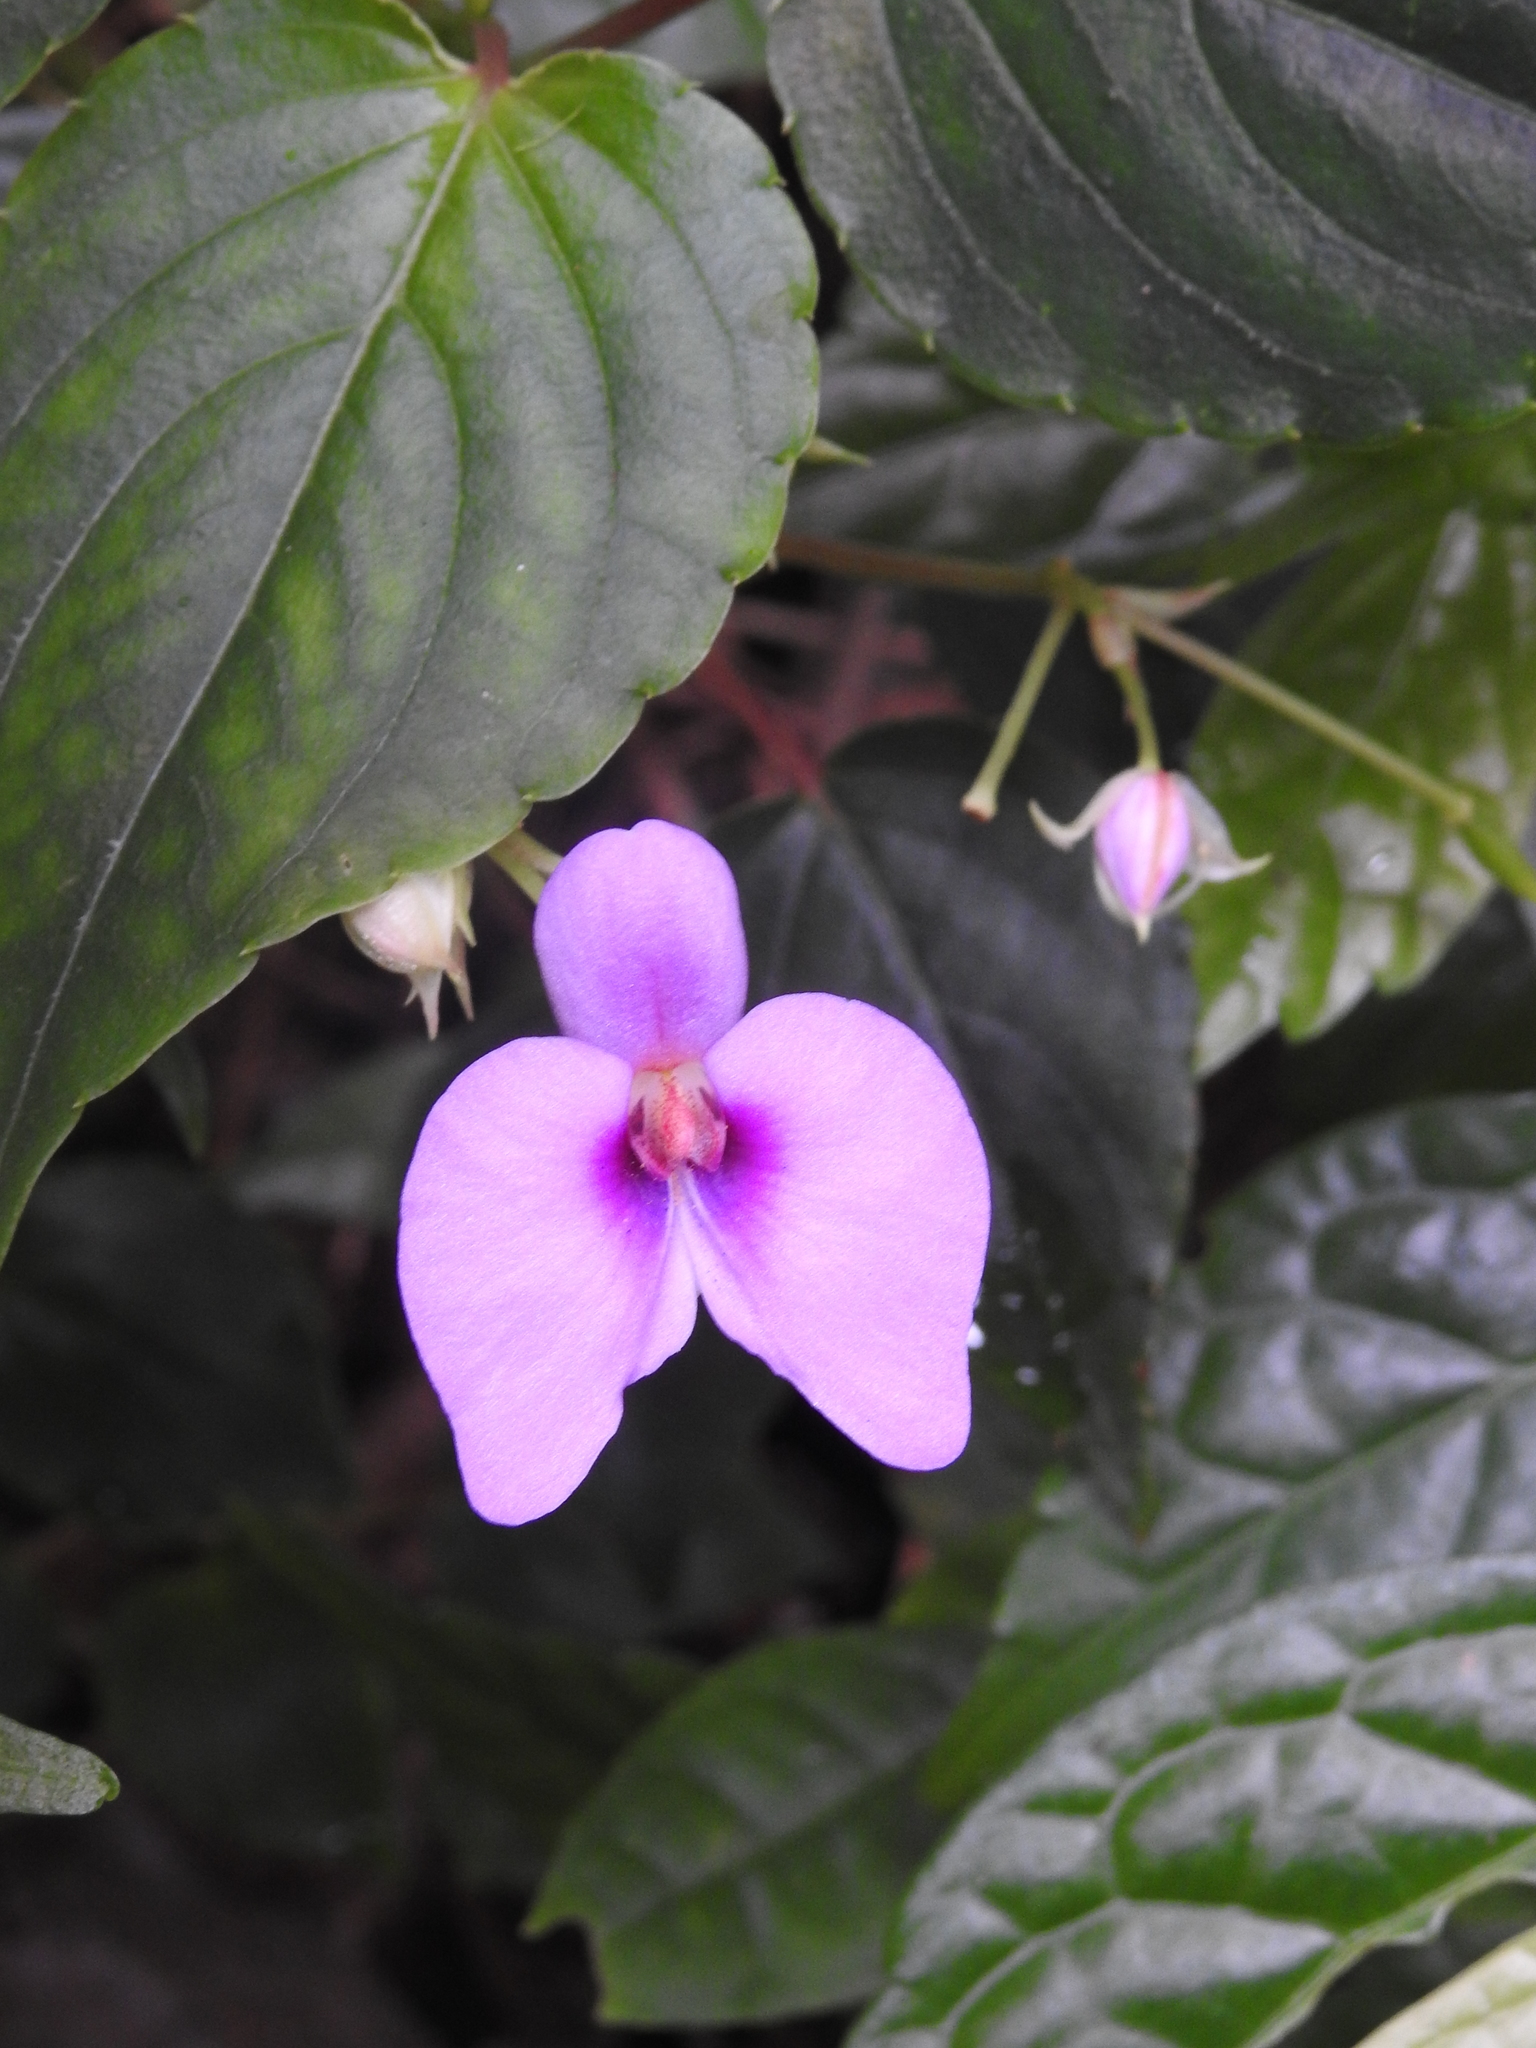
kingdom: Plantae
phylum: Tracheophyta
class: Magnoliopsida
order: Ericales
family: Balsaminaceae
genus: Impatiens
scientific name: Impatiens cordata
